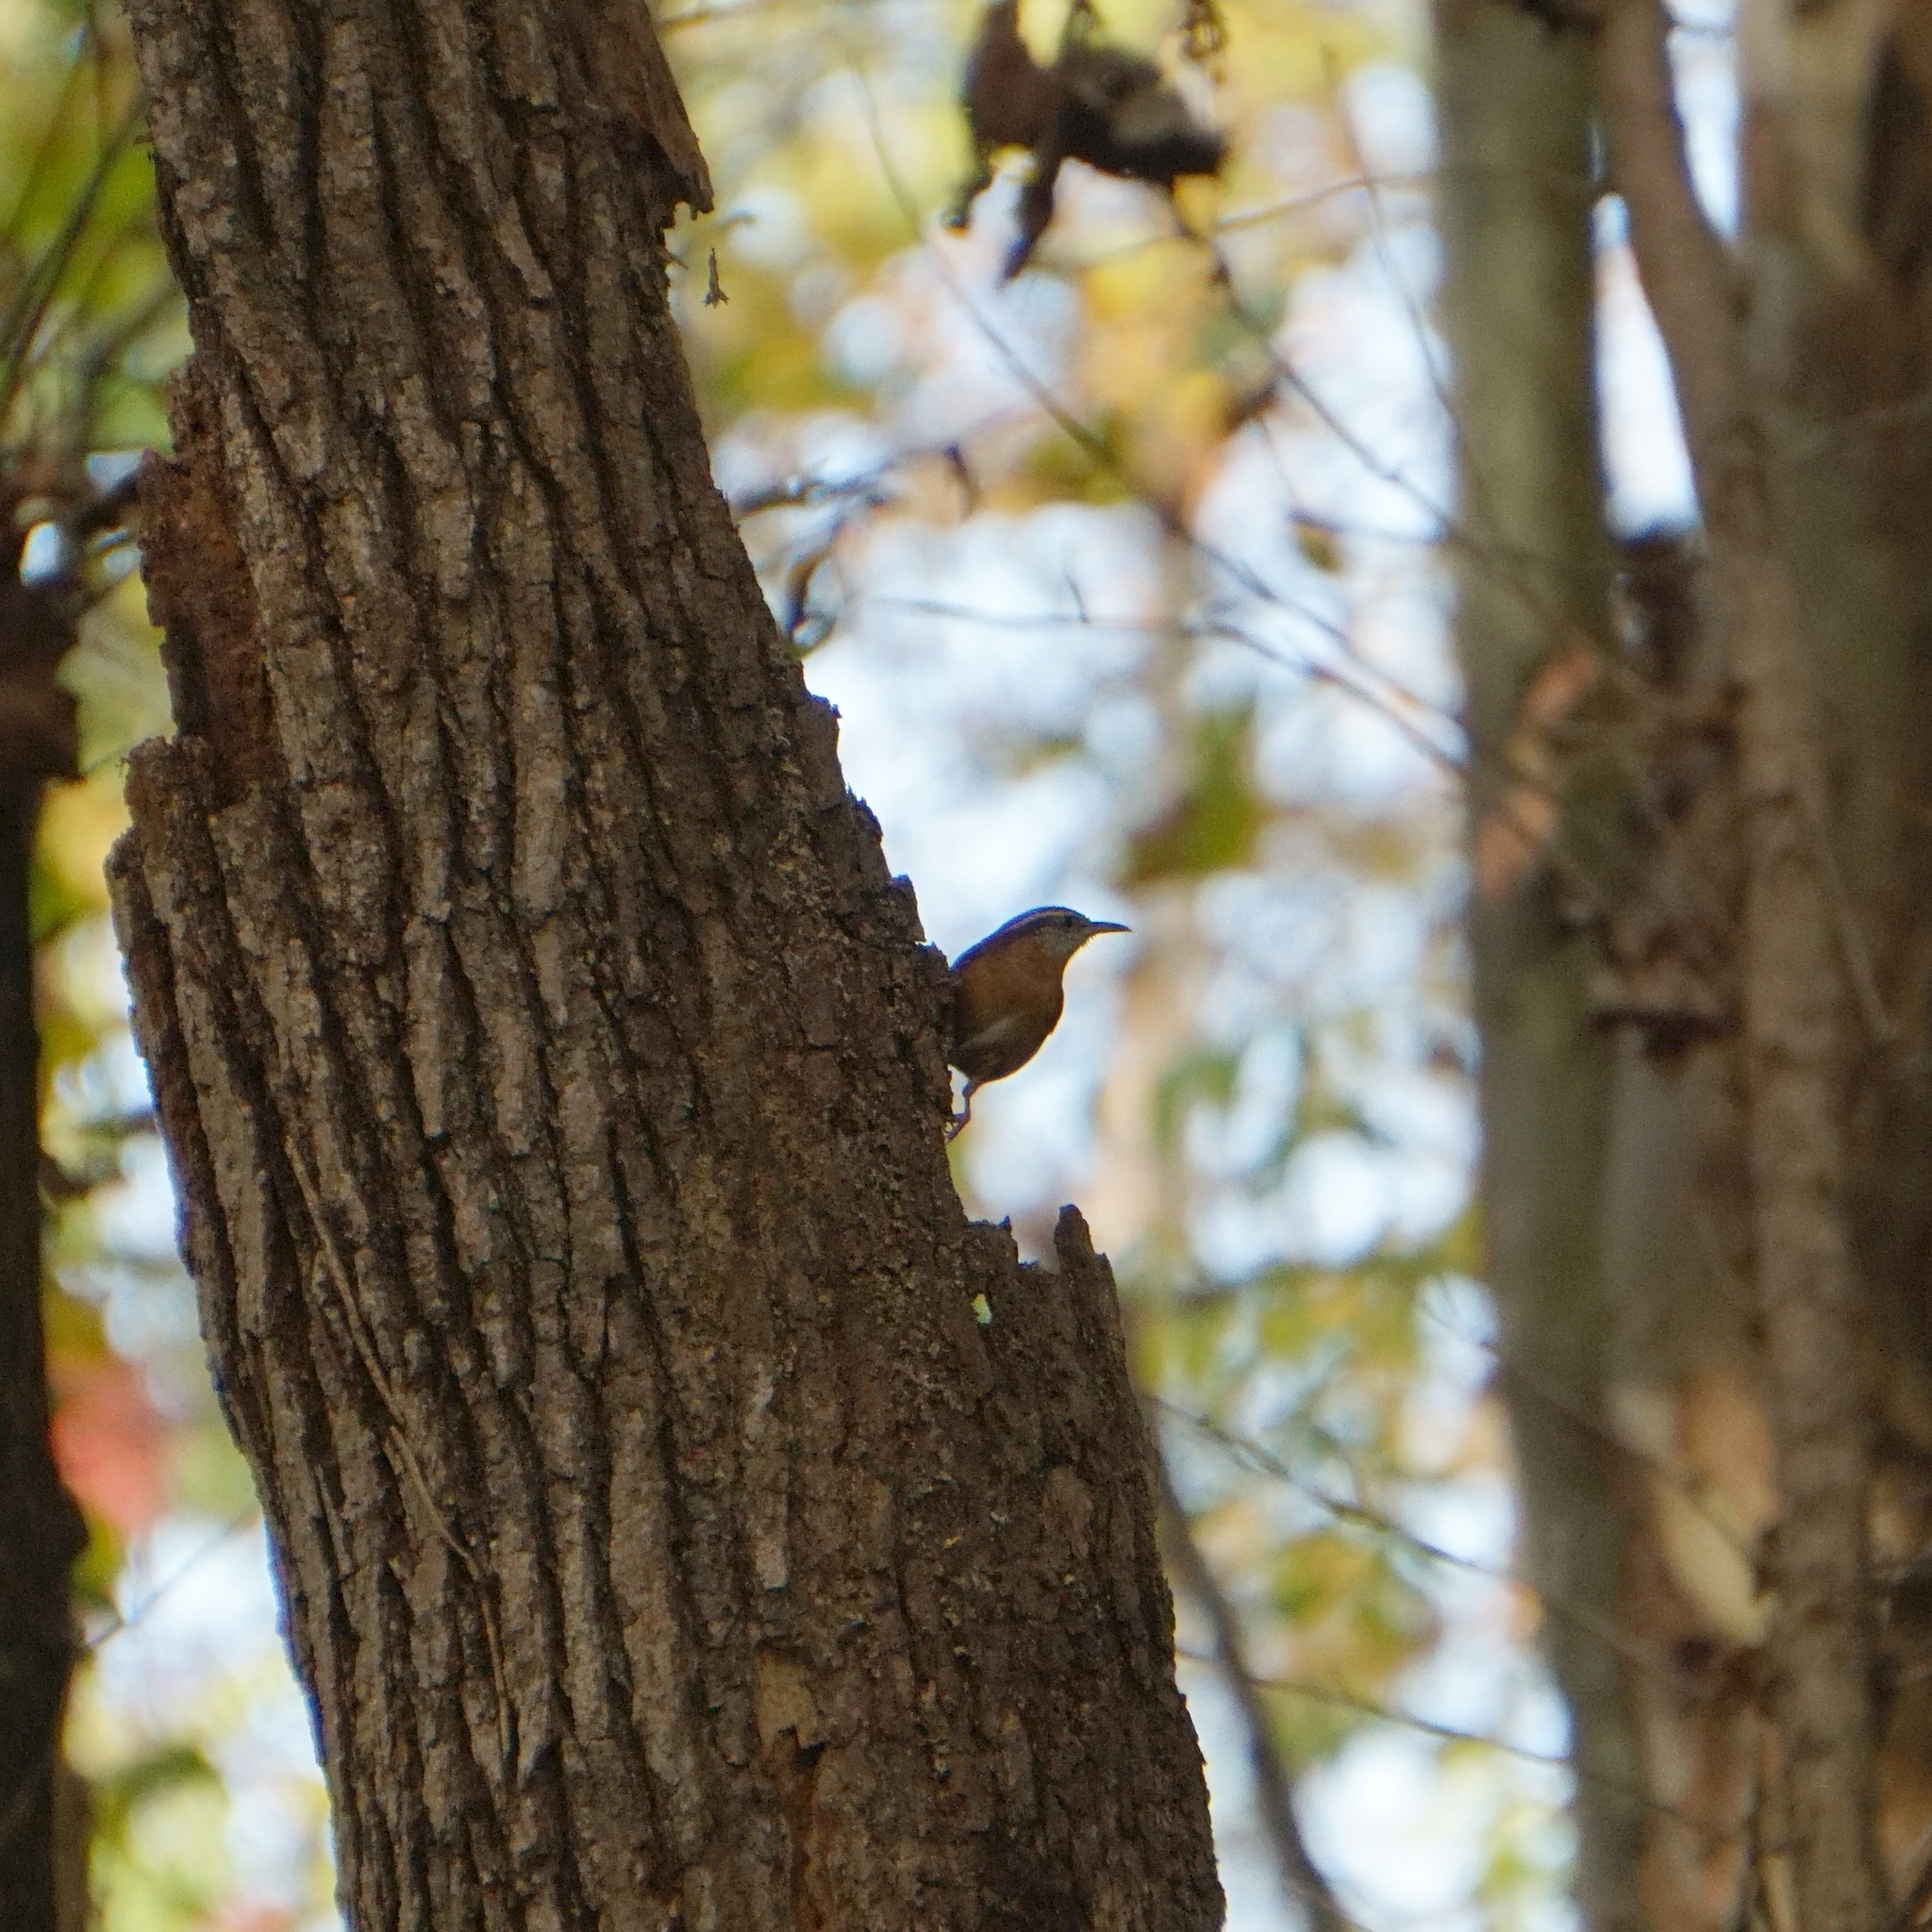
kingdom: Animalia
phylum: Chordata
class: Aves
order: Passeriformes
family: Troglodytidae
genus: Thryothorus
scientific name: Thryothorus ludovicianus
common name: Carolina wren
